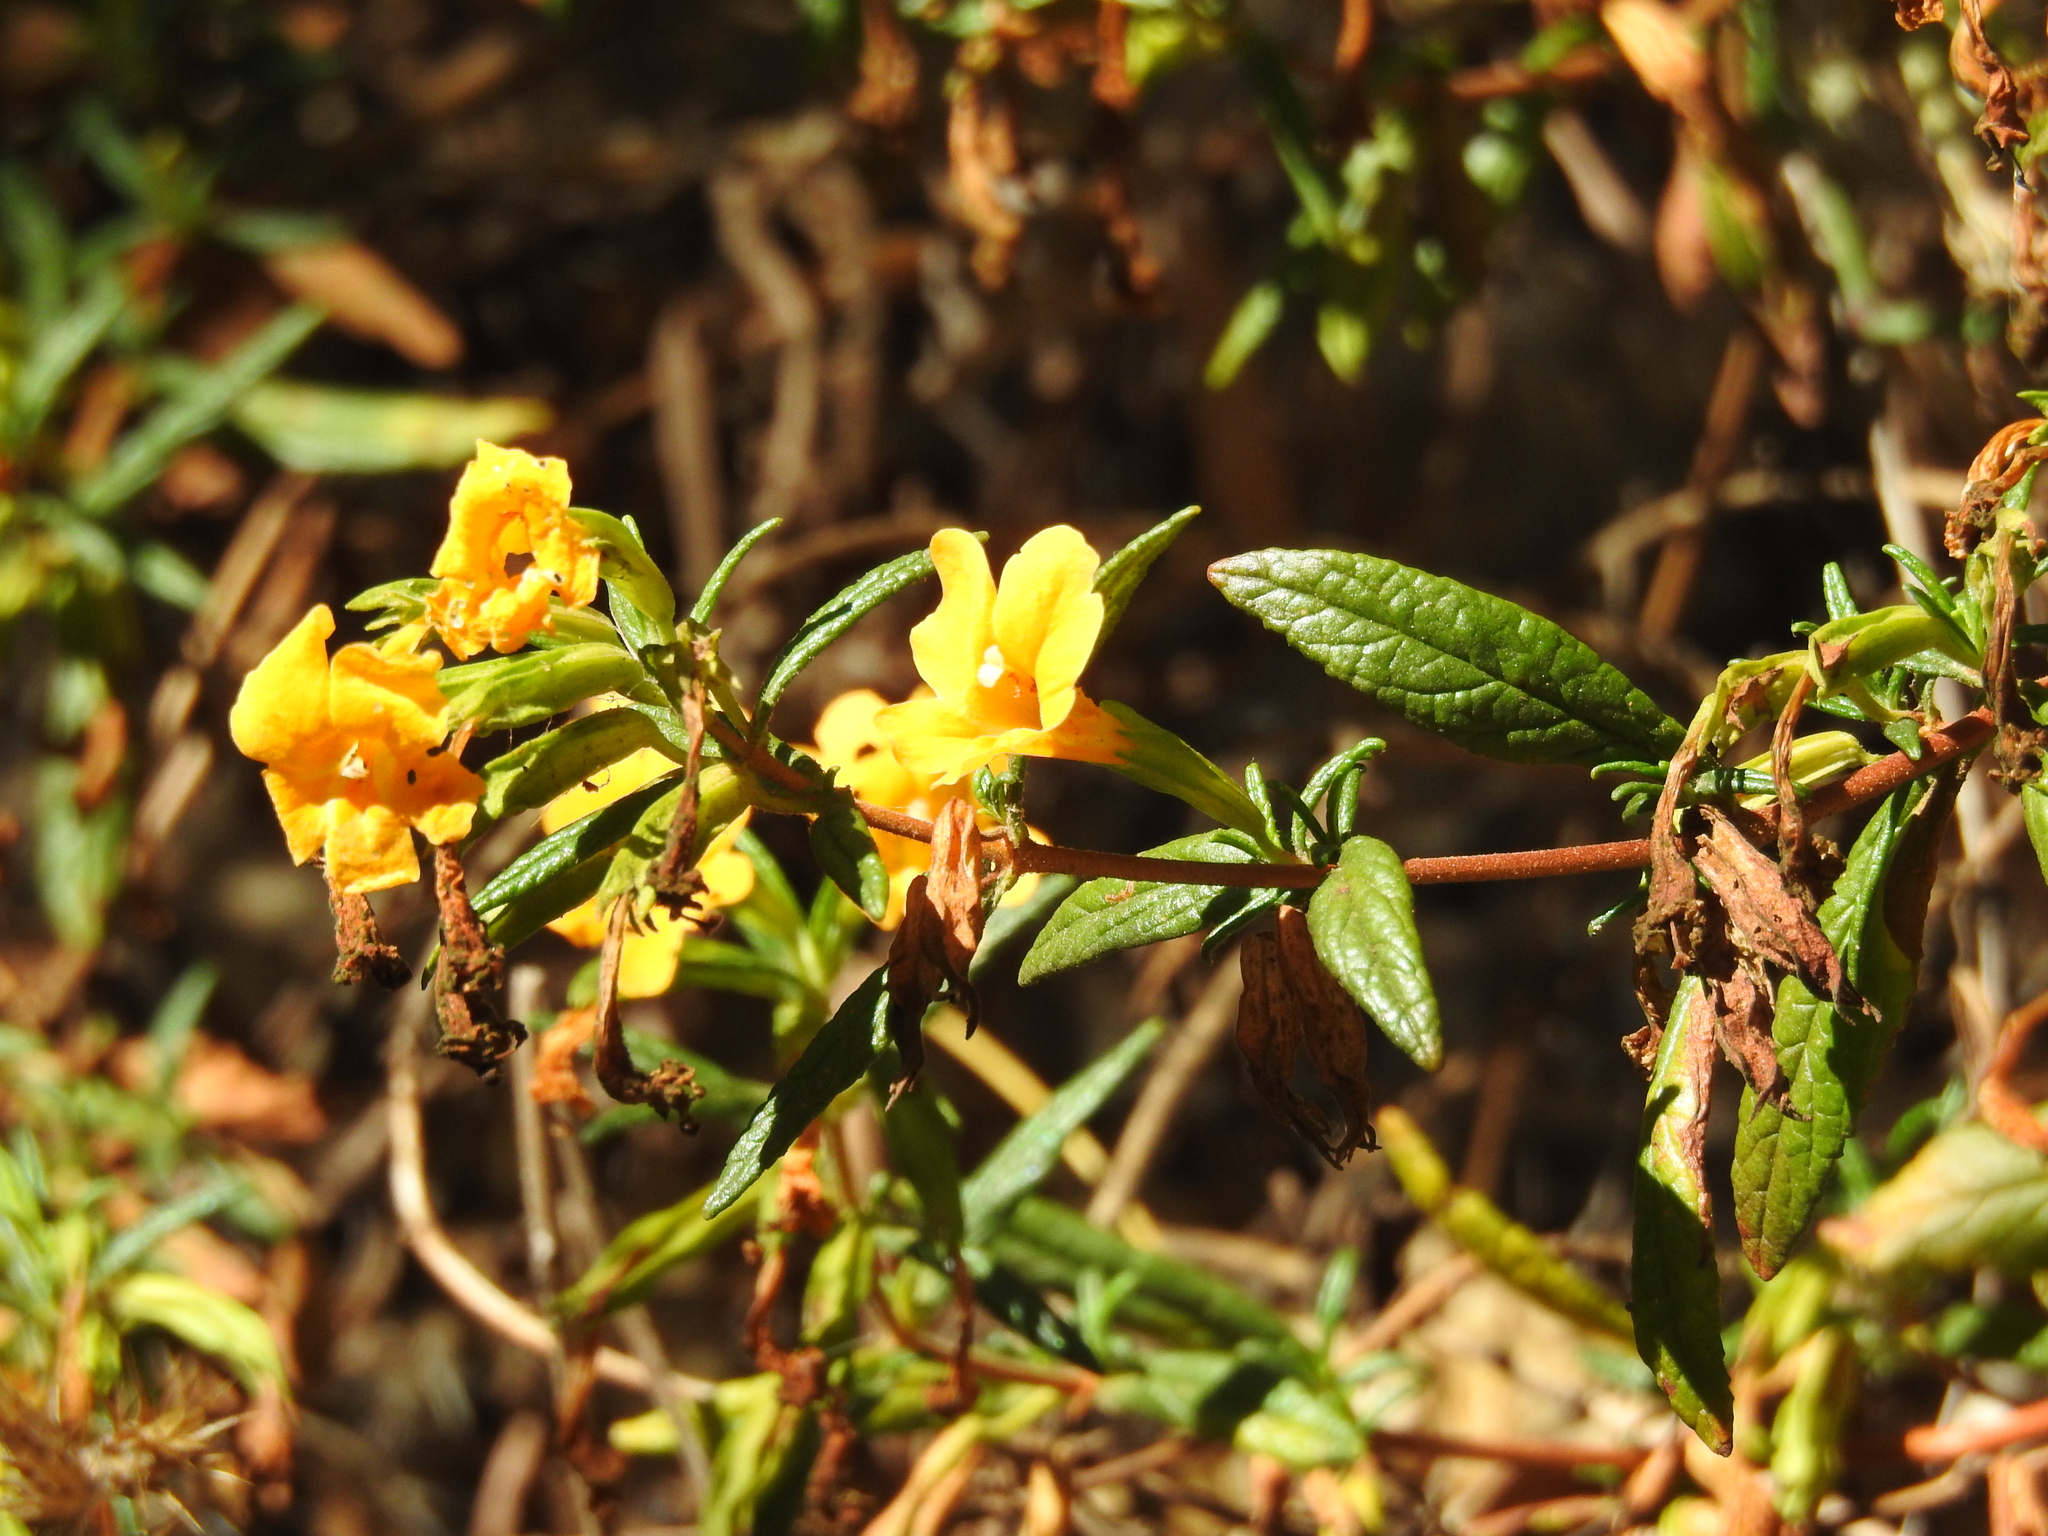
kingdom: Plantae
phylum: Tracheophyta
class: Magnoliopsida
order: Lamiales
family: Phrymaceae
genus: Diplacus
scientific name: Diplacus aurantiacus
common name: Bush monkey-flower
